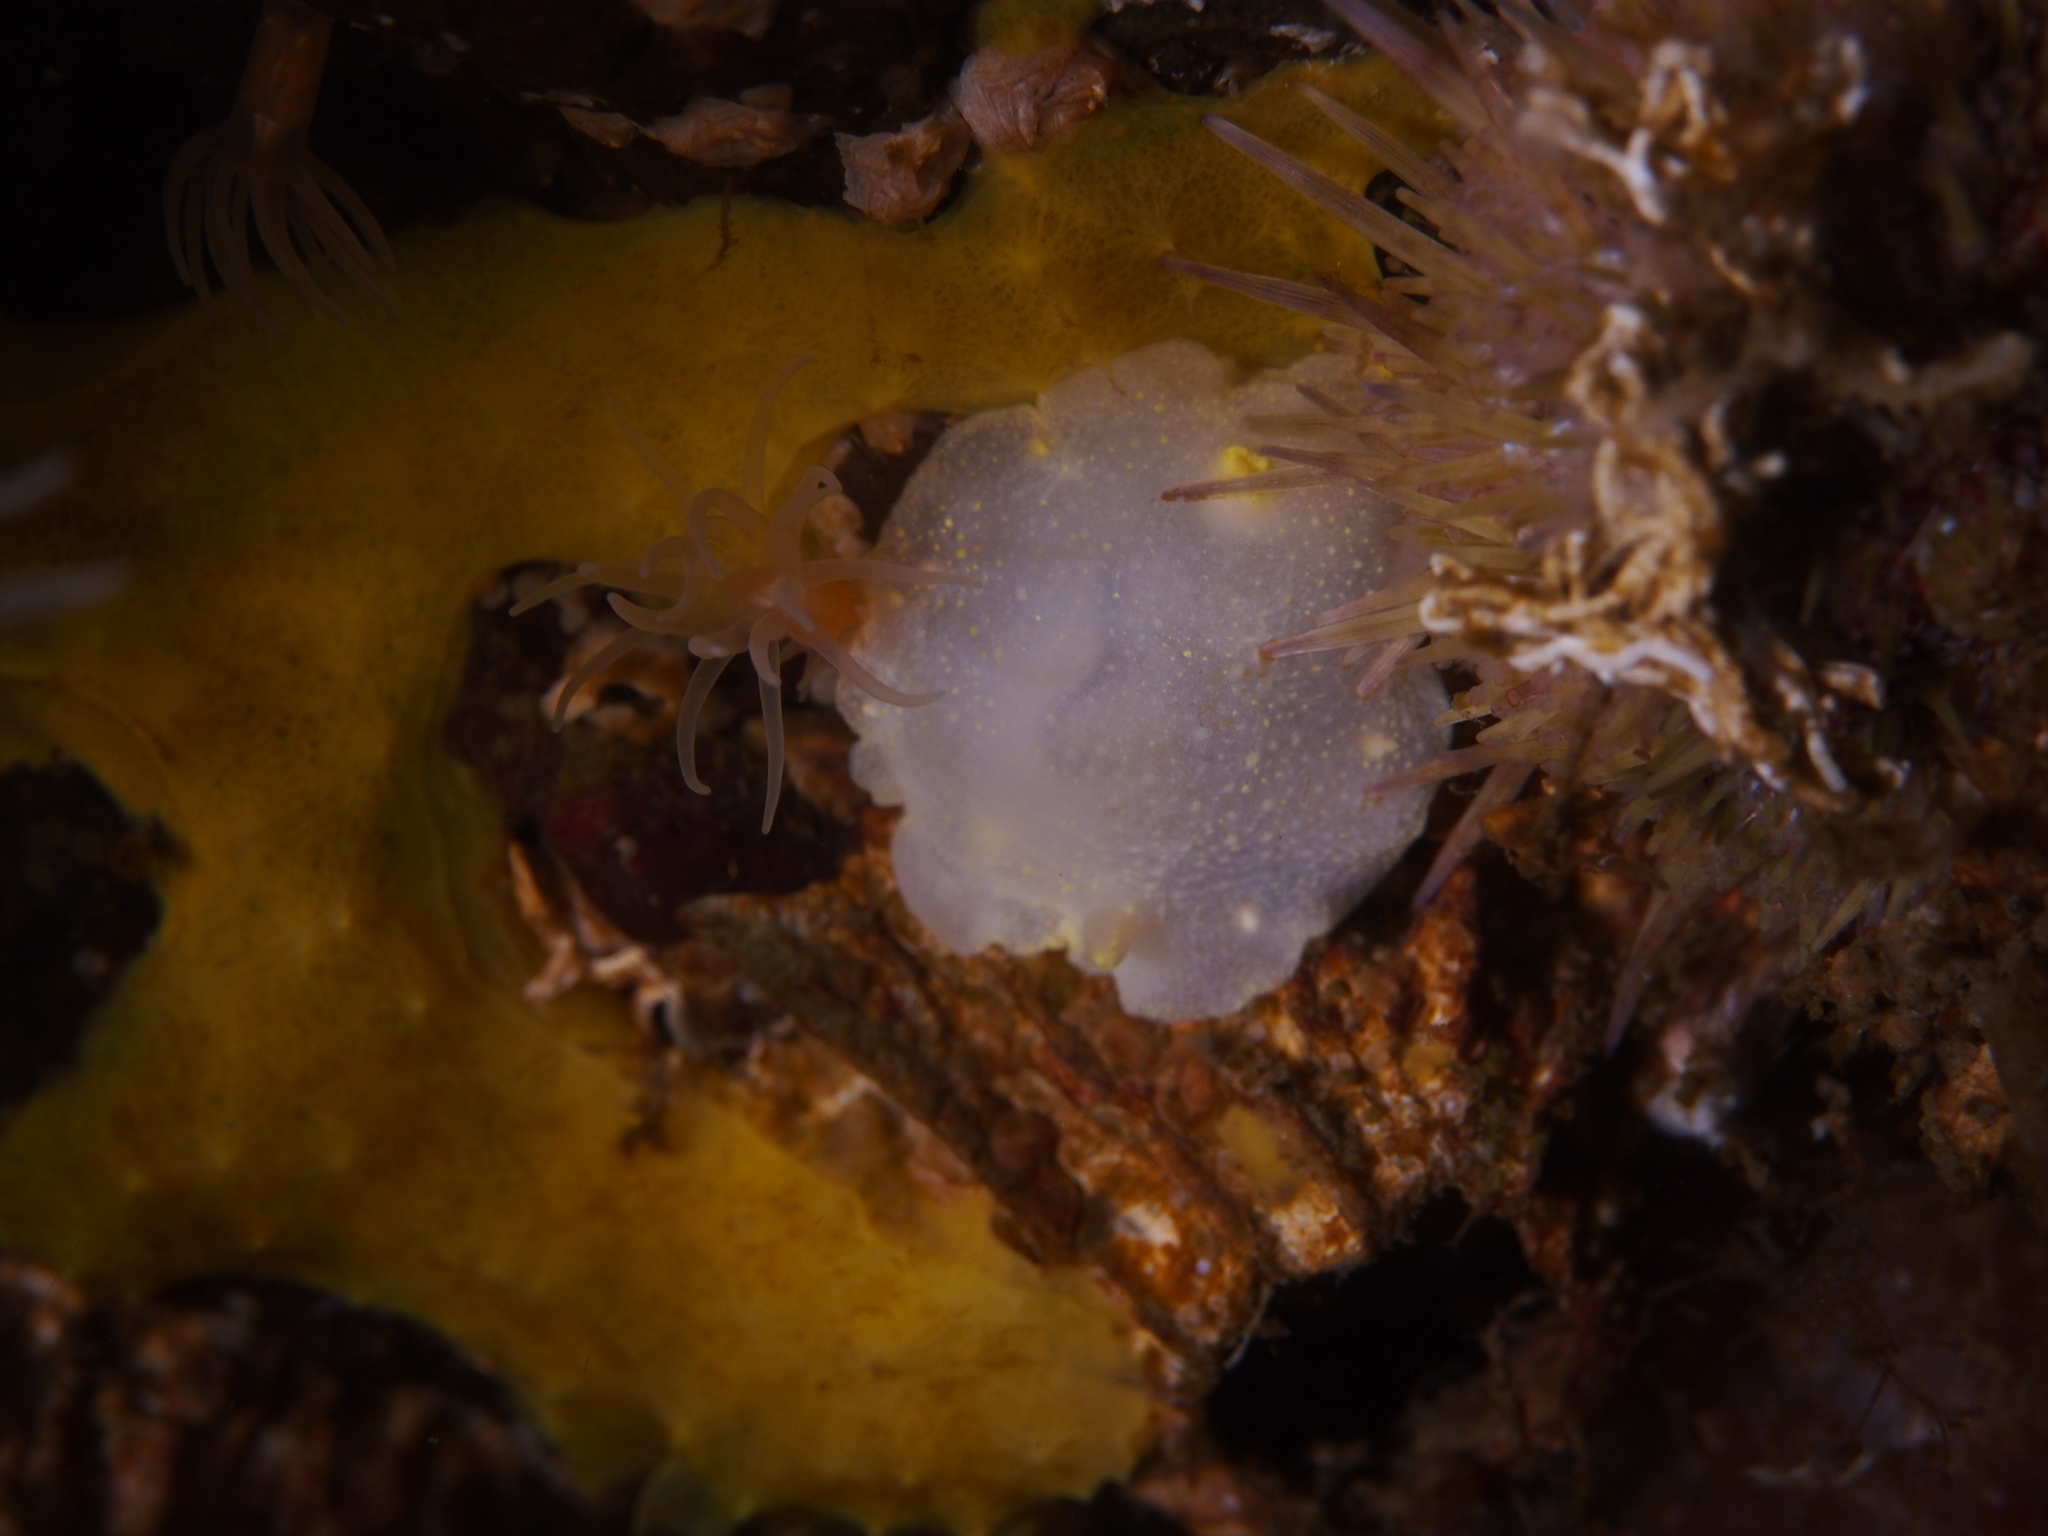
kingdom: Animalia
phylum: Mollusca
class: Gastropoda
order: Nudibranchia
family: Cadlinidae
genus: Cadlina
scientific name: Cadlina laevis
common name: White atlantic cadlina
